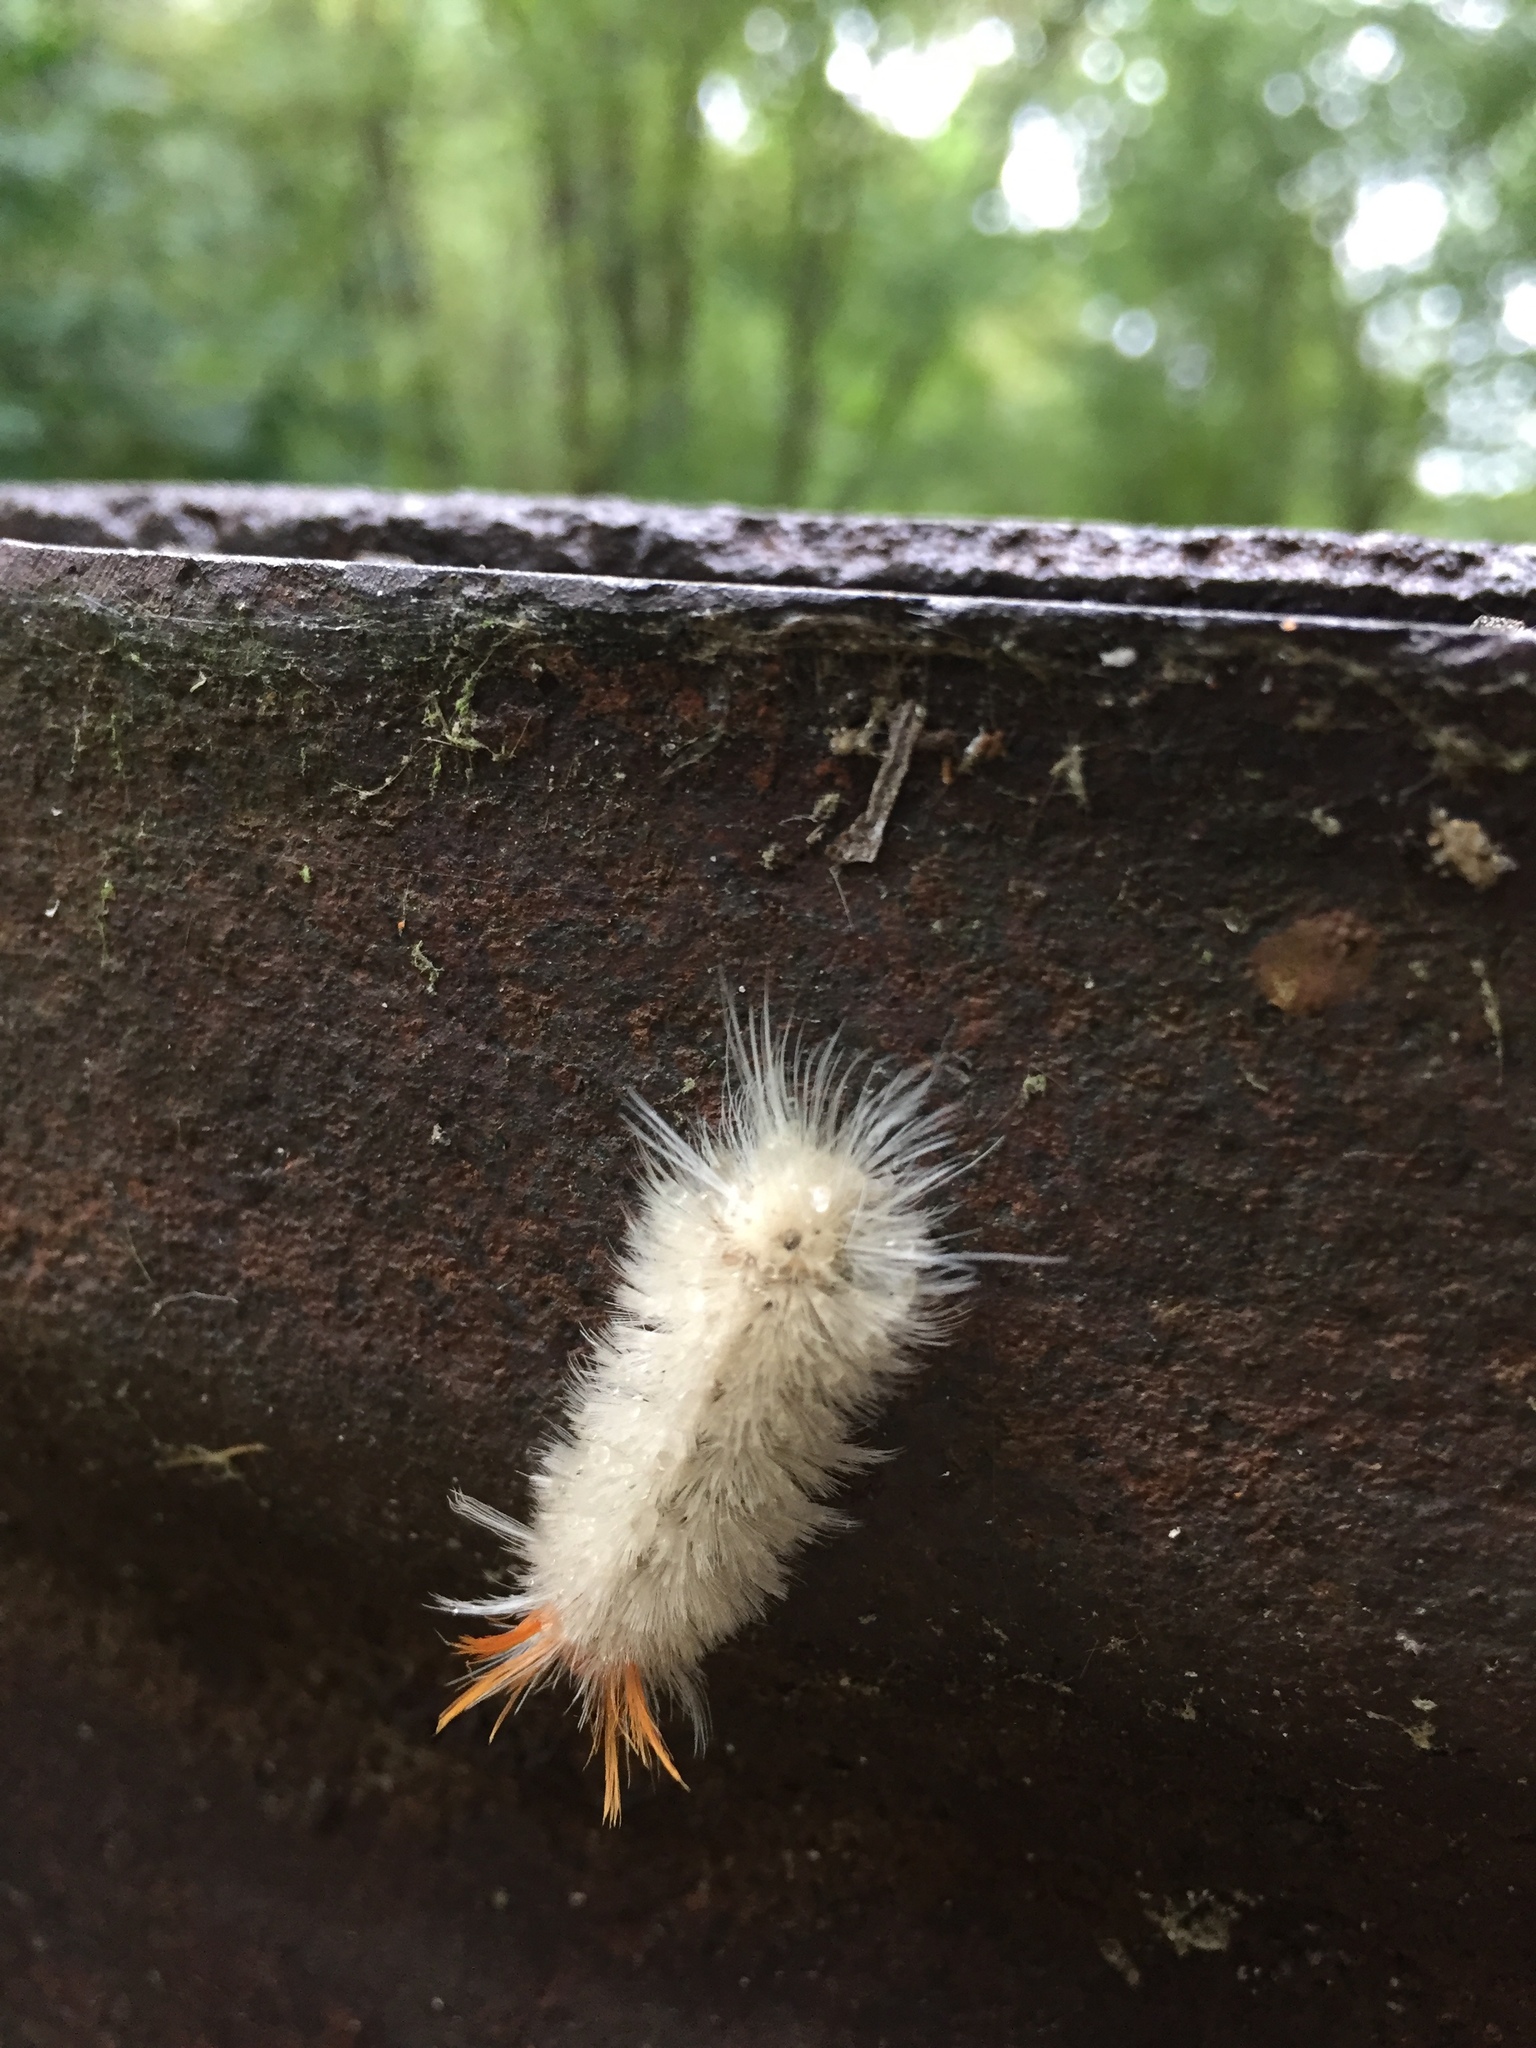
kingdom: Animalia
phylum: Arthropoda
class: Insecta
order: Lepidoptera
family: Erebidae
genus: Halysidota
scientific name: Halysidota harrisii
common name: Sycamore tussock moth
